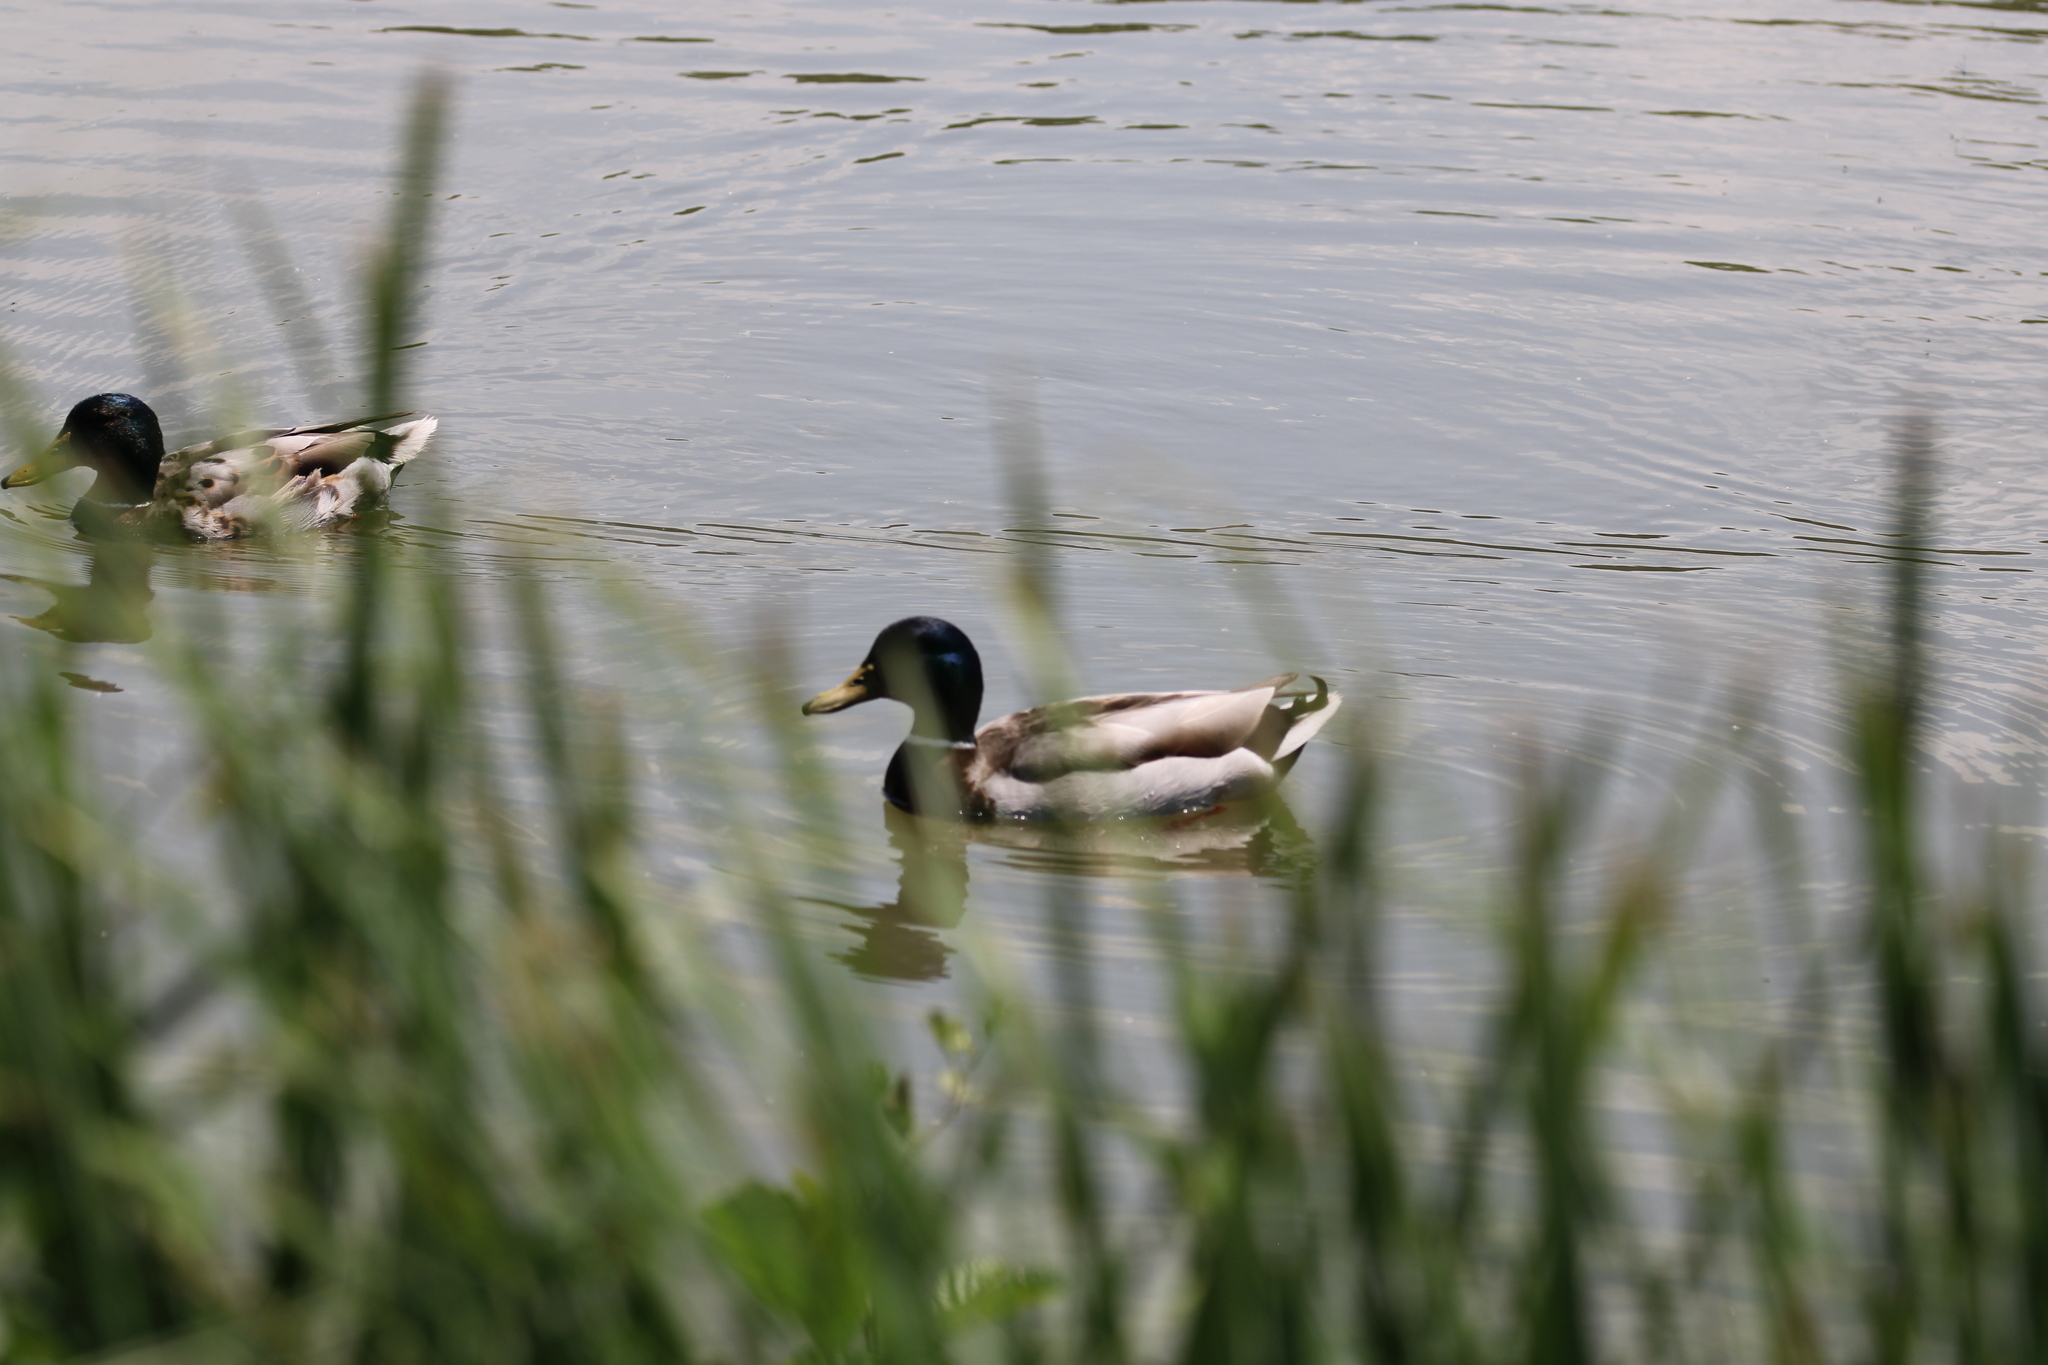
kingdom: Animalia
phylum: Chordata
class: Aves
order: Anseriformes
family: Anatidae
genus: Anas
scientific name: Anas platyrhynchos
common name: Mallard
